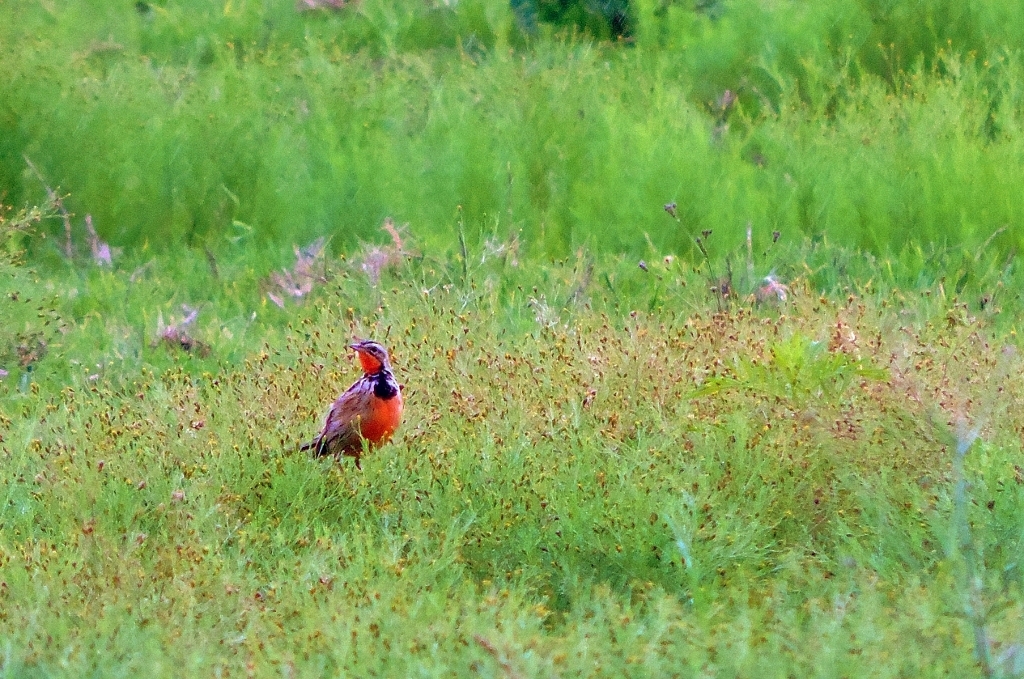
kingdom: Animalia
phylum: Chordata
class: Aves
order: Passeriformes
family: Motacillidae
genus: Macronyx
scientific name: Macronyx ameliae
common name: Rosy-throated longclaw
